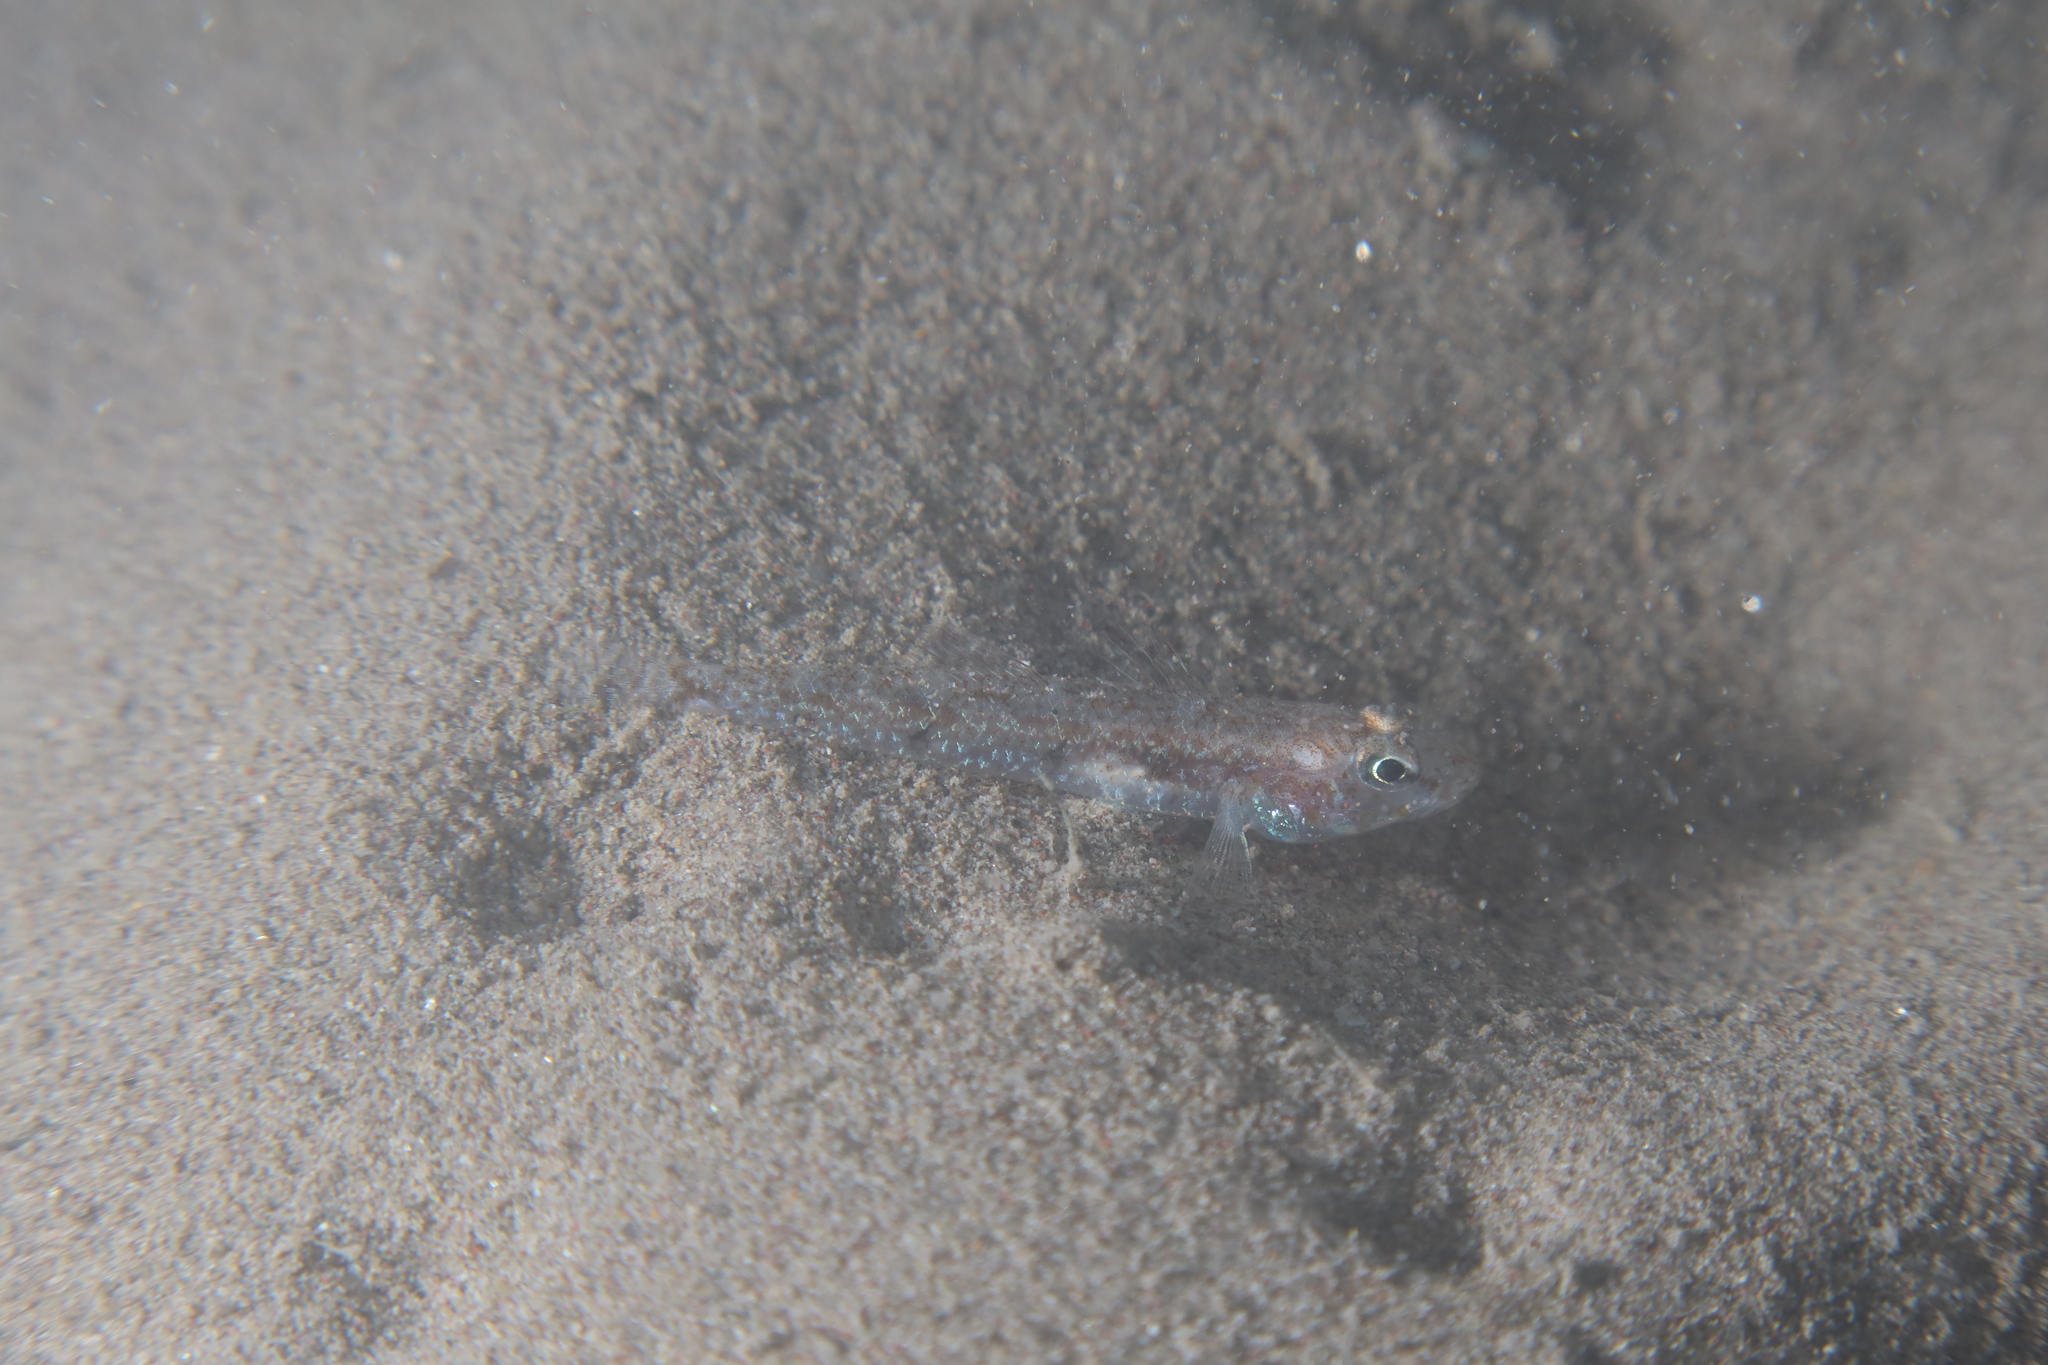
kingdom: Animalia
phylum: Chordata
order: Perciformes
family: Gobiidae
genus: Deltentosteus
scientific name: Deltentosteus quadrimaculatus
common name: Four-spotted goby
